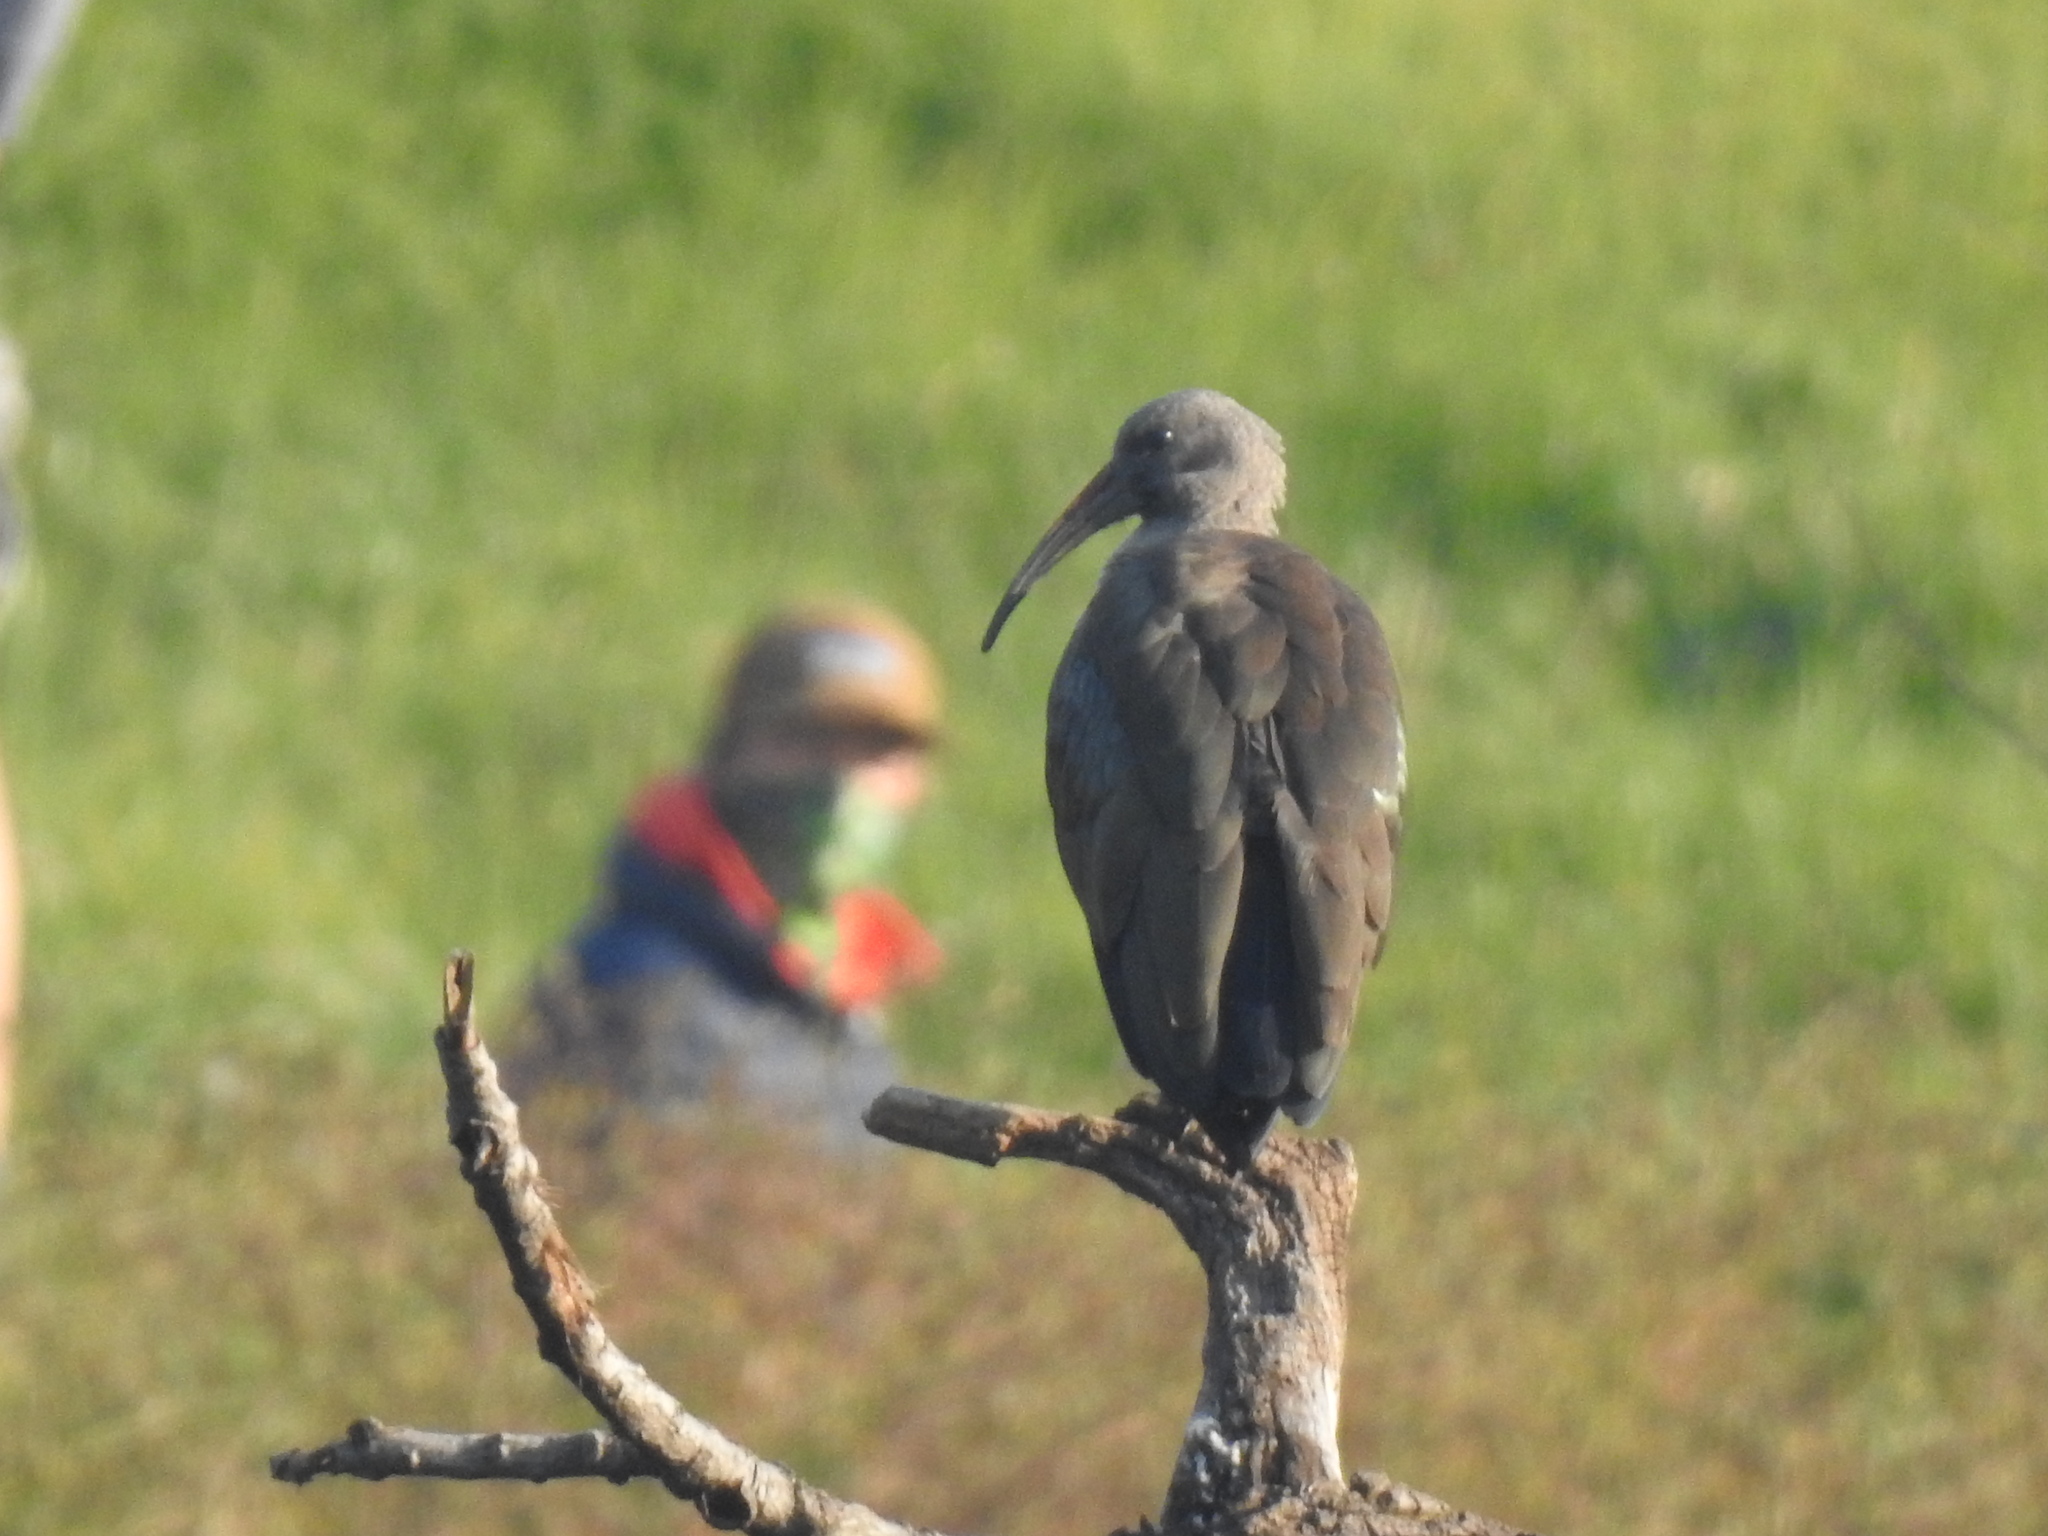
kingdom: Animalia
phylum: Chordata
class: Aves
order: Pelecaniformes
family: Threskiornithidae
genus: Bostrychia
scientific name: Bostrychia hagedash
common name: Hadada ibis
